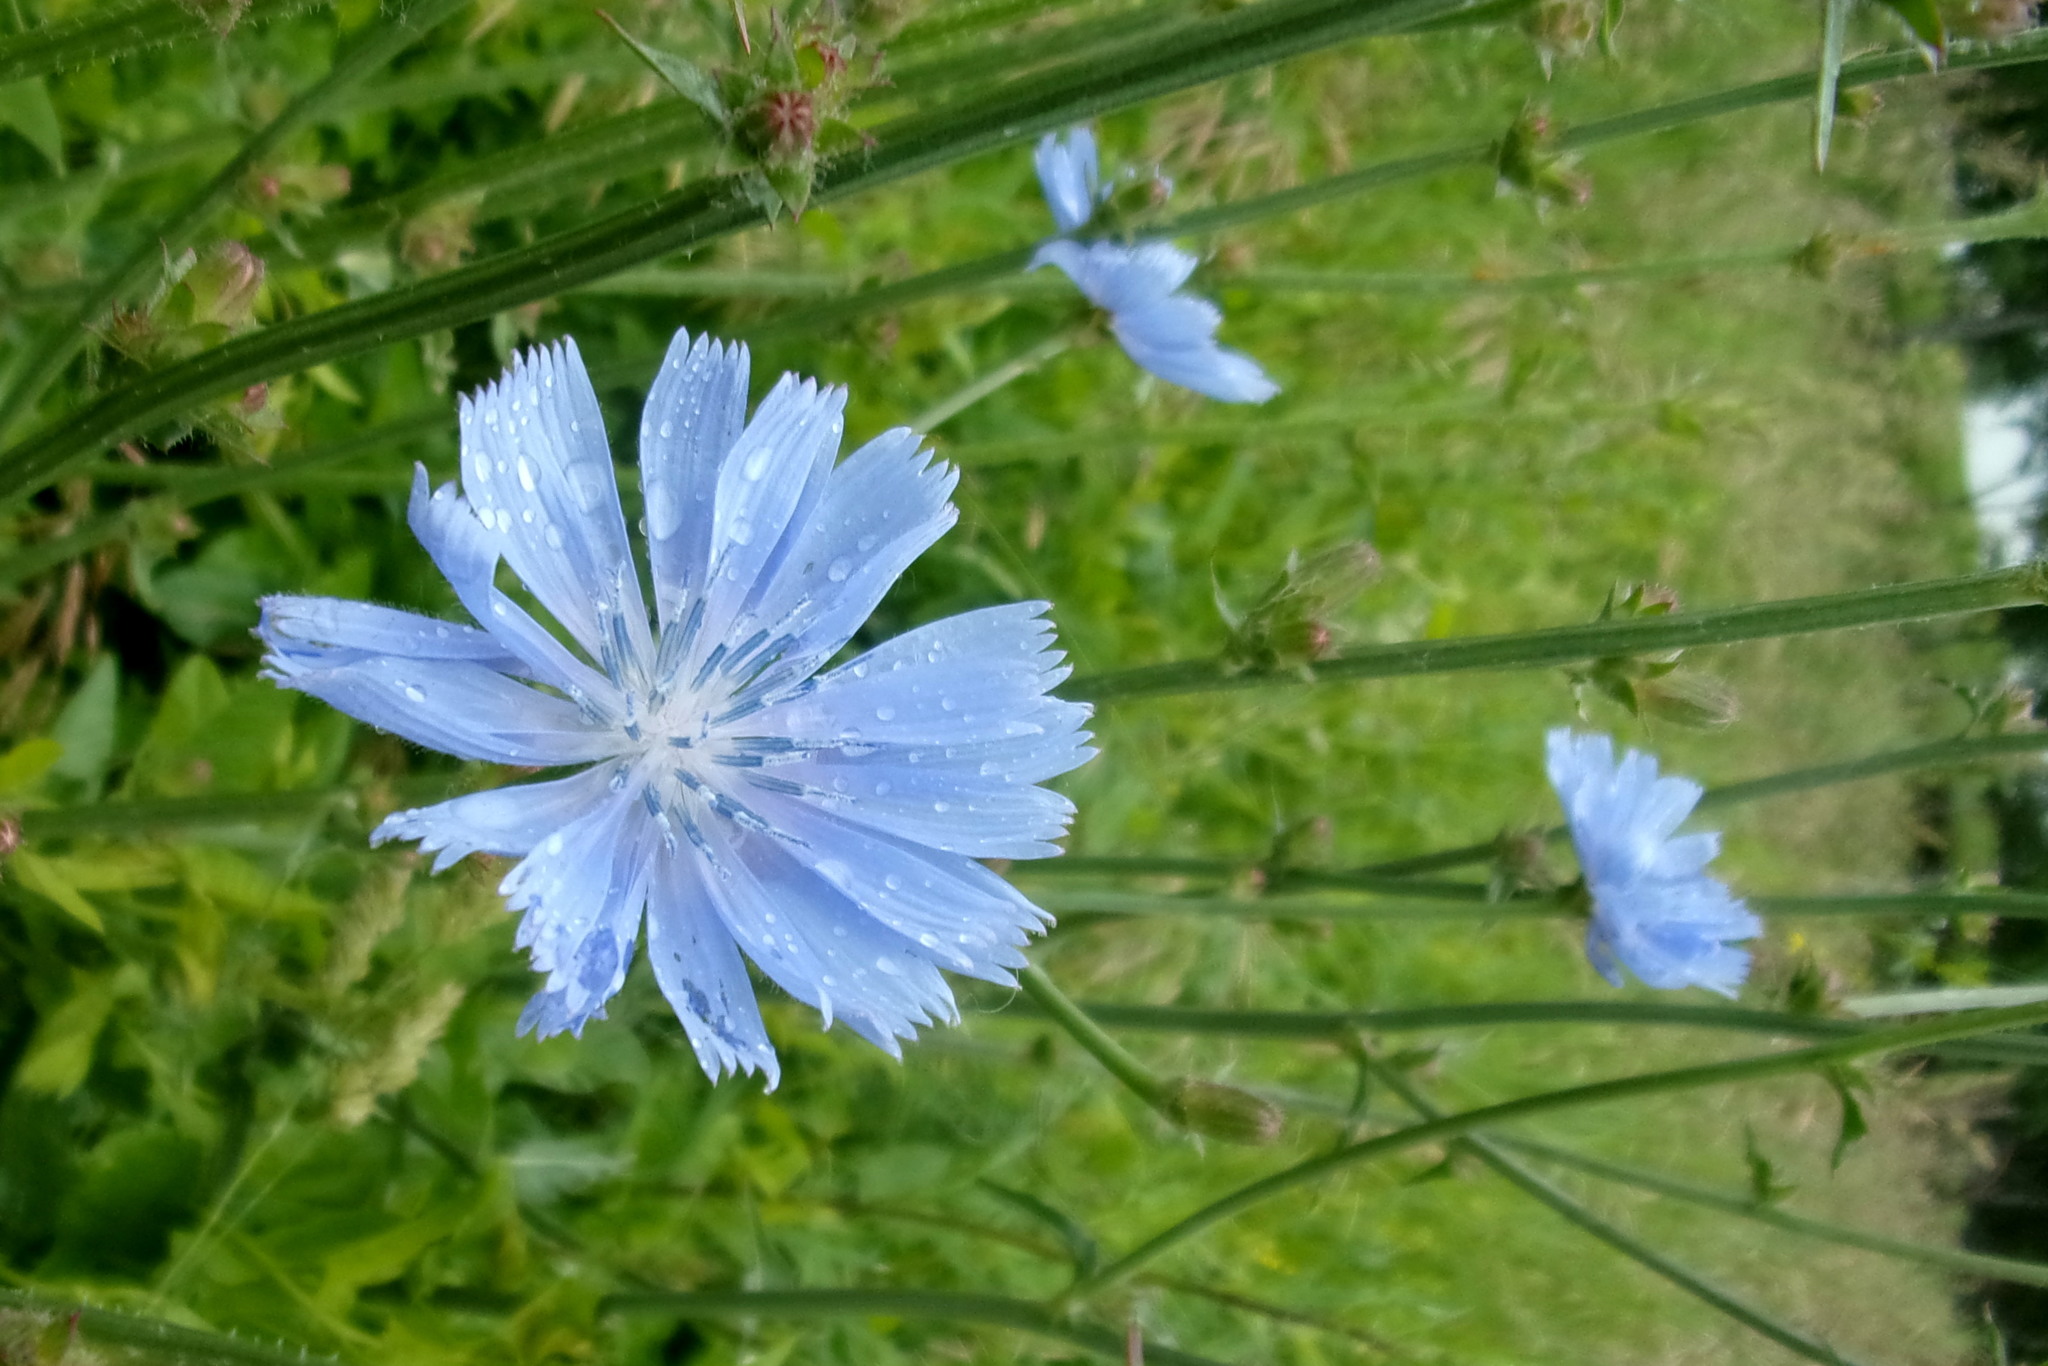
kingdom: Plantae
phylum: Tracheophyta
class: Magnoliopsida
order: Asterales
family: Asteraceae
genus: Cichorium
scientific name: Cichorium intybus
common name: Chicory
